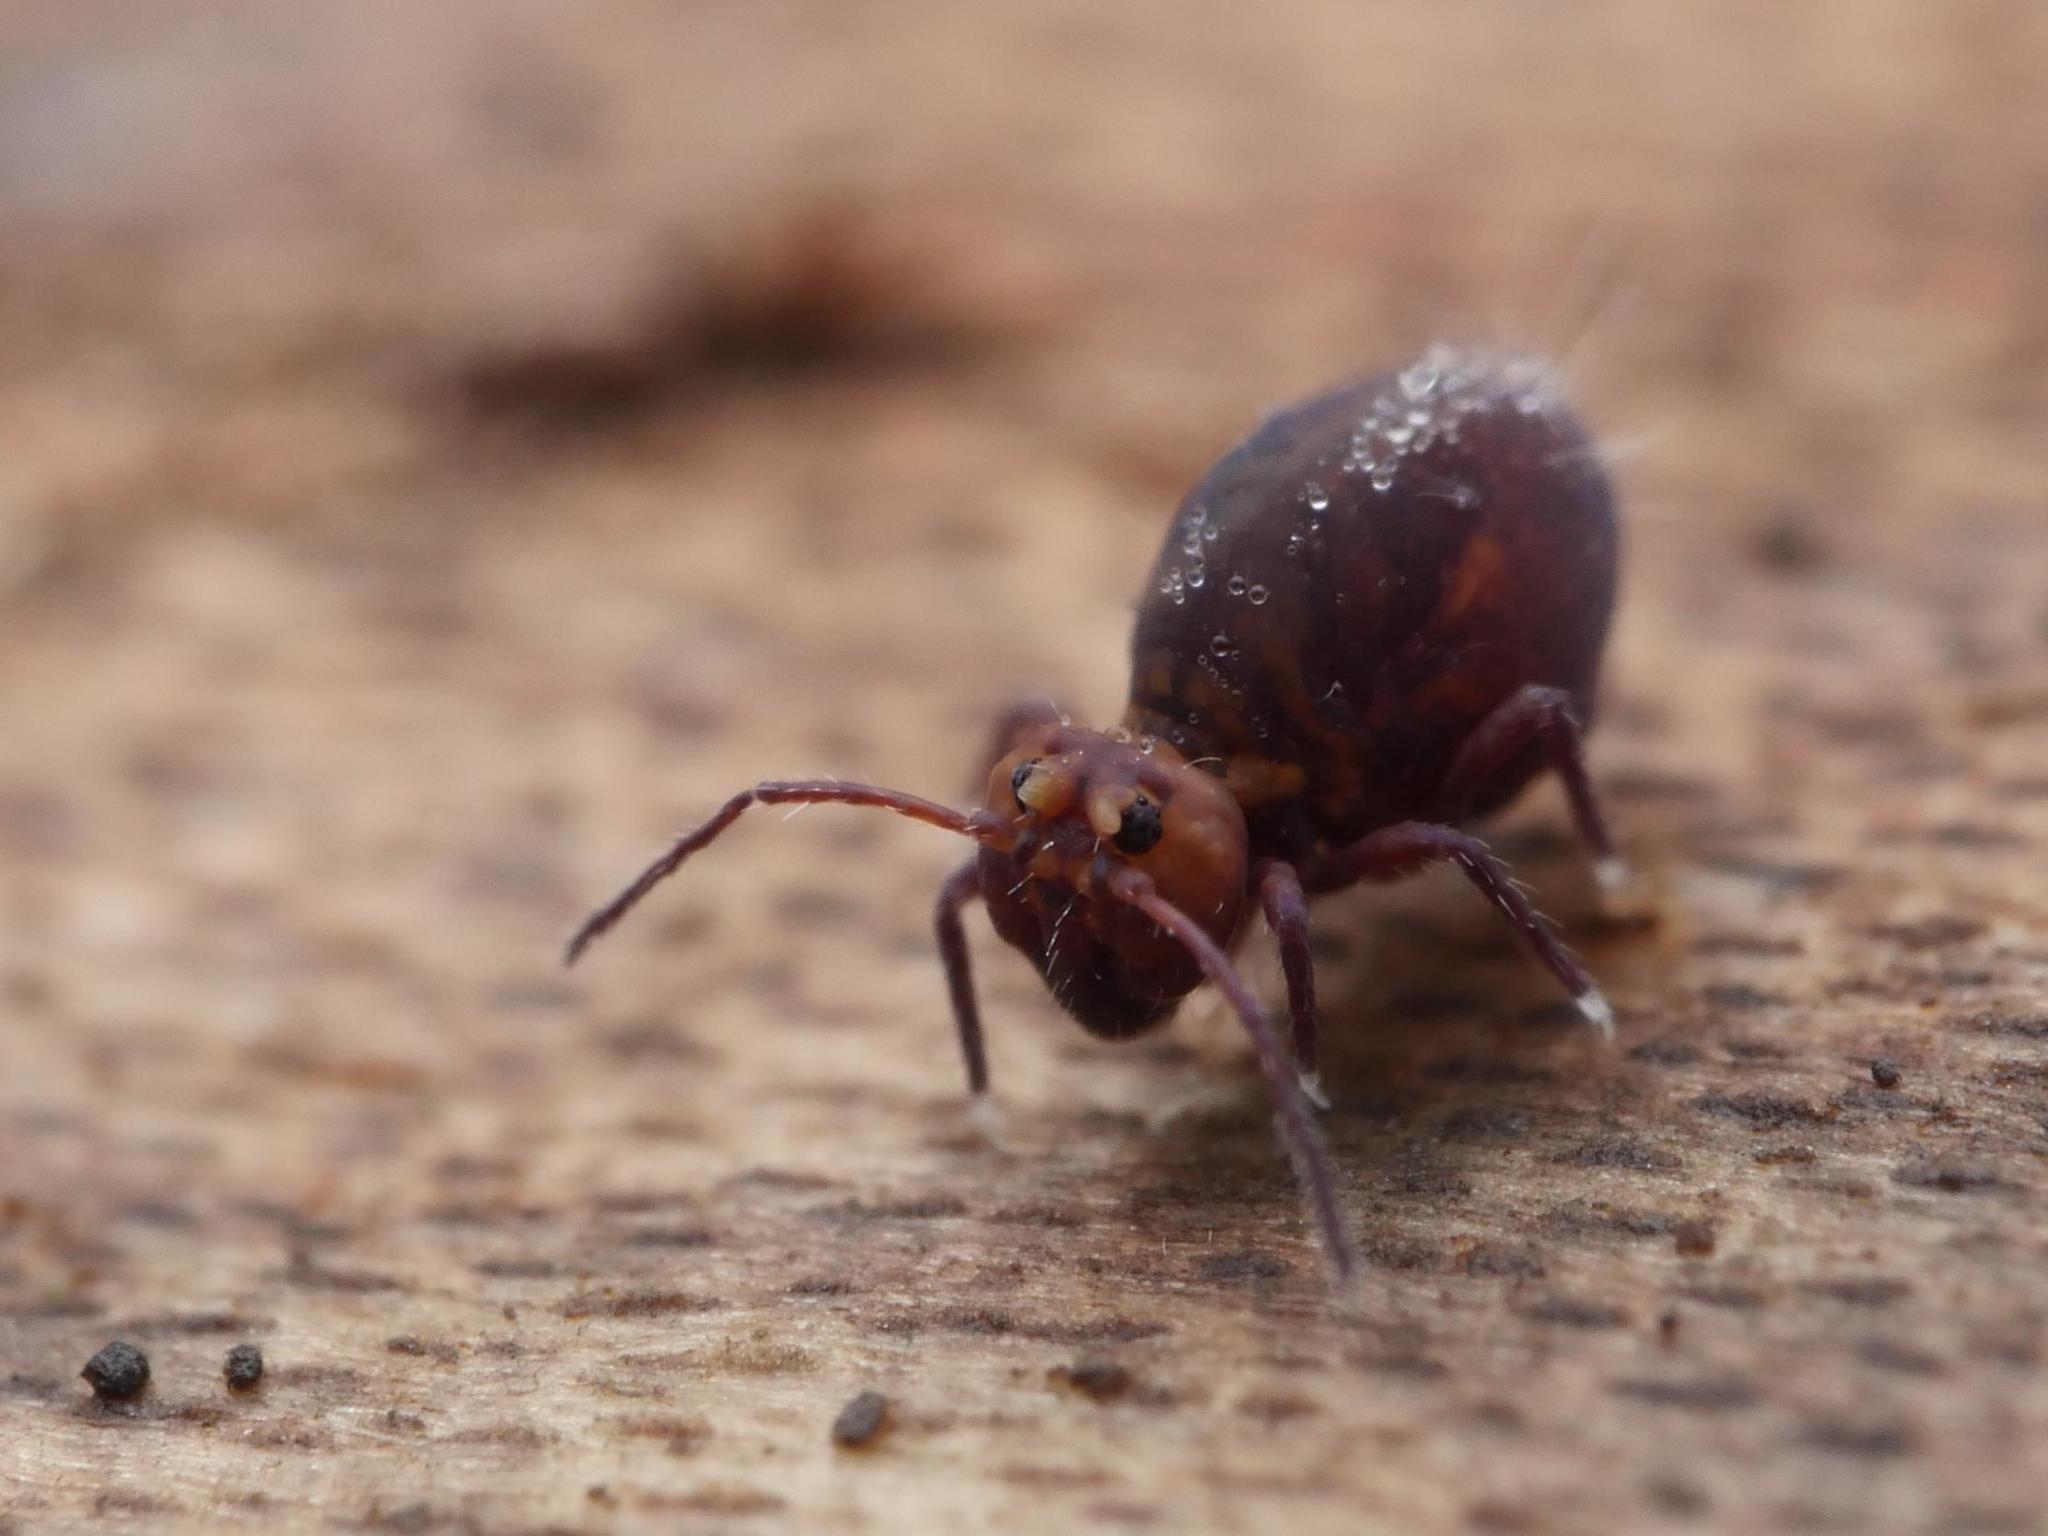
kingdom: Animalia
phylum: Arthropoda
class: Collembola
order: Symphypleona
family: Dicyrtomidae
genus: Dicyrtoma
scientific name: Dicyrtoma fusca
